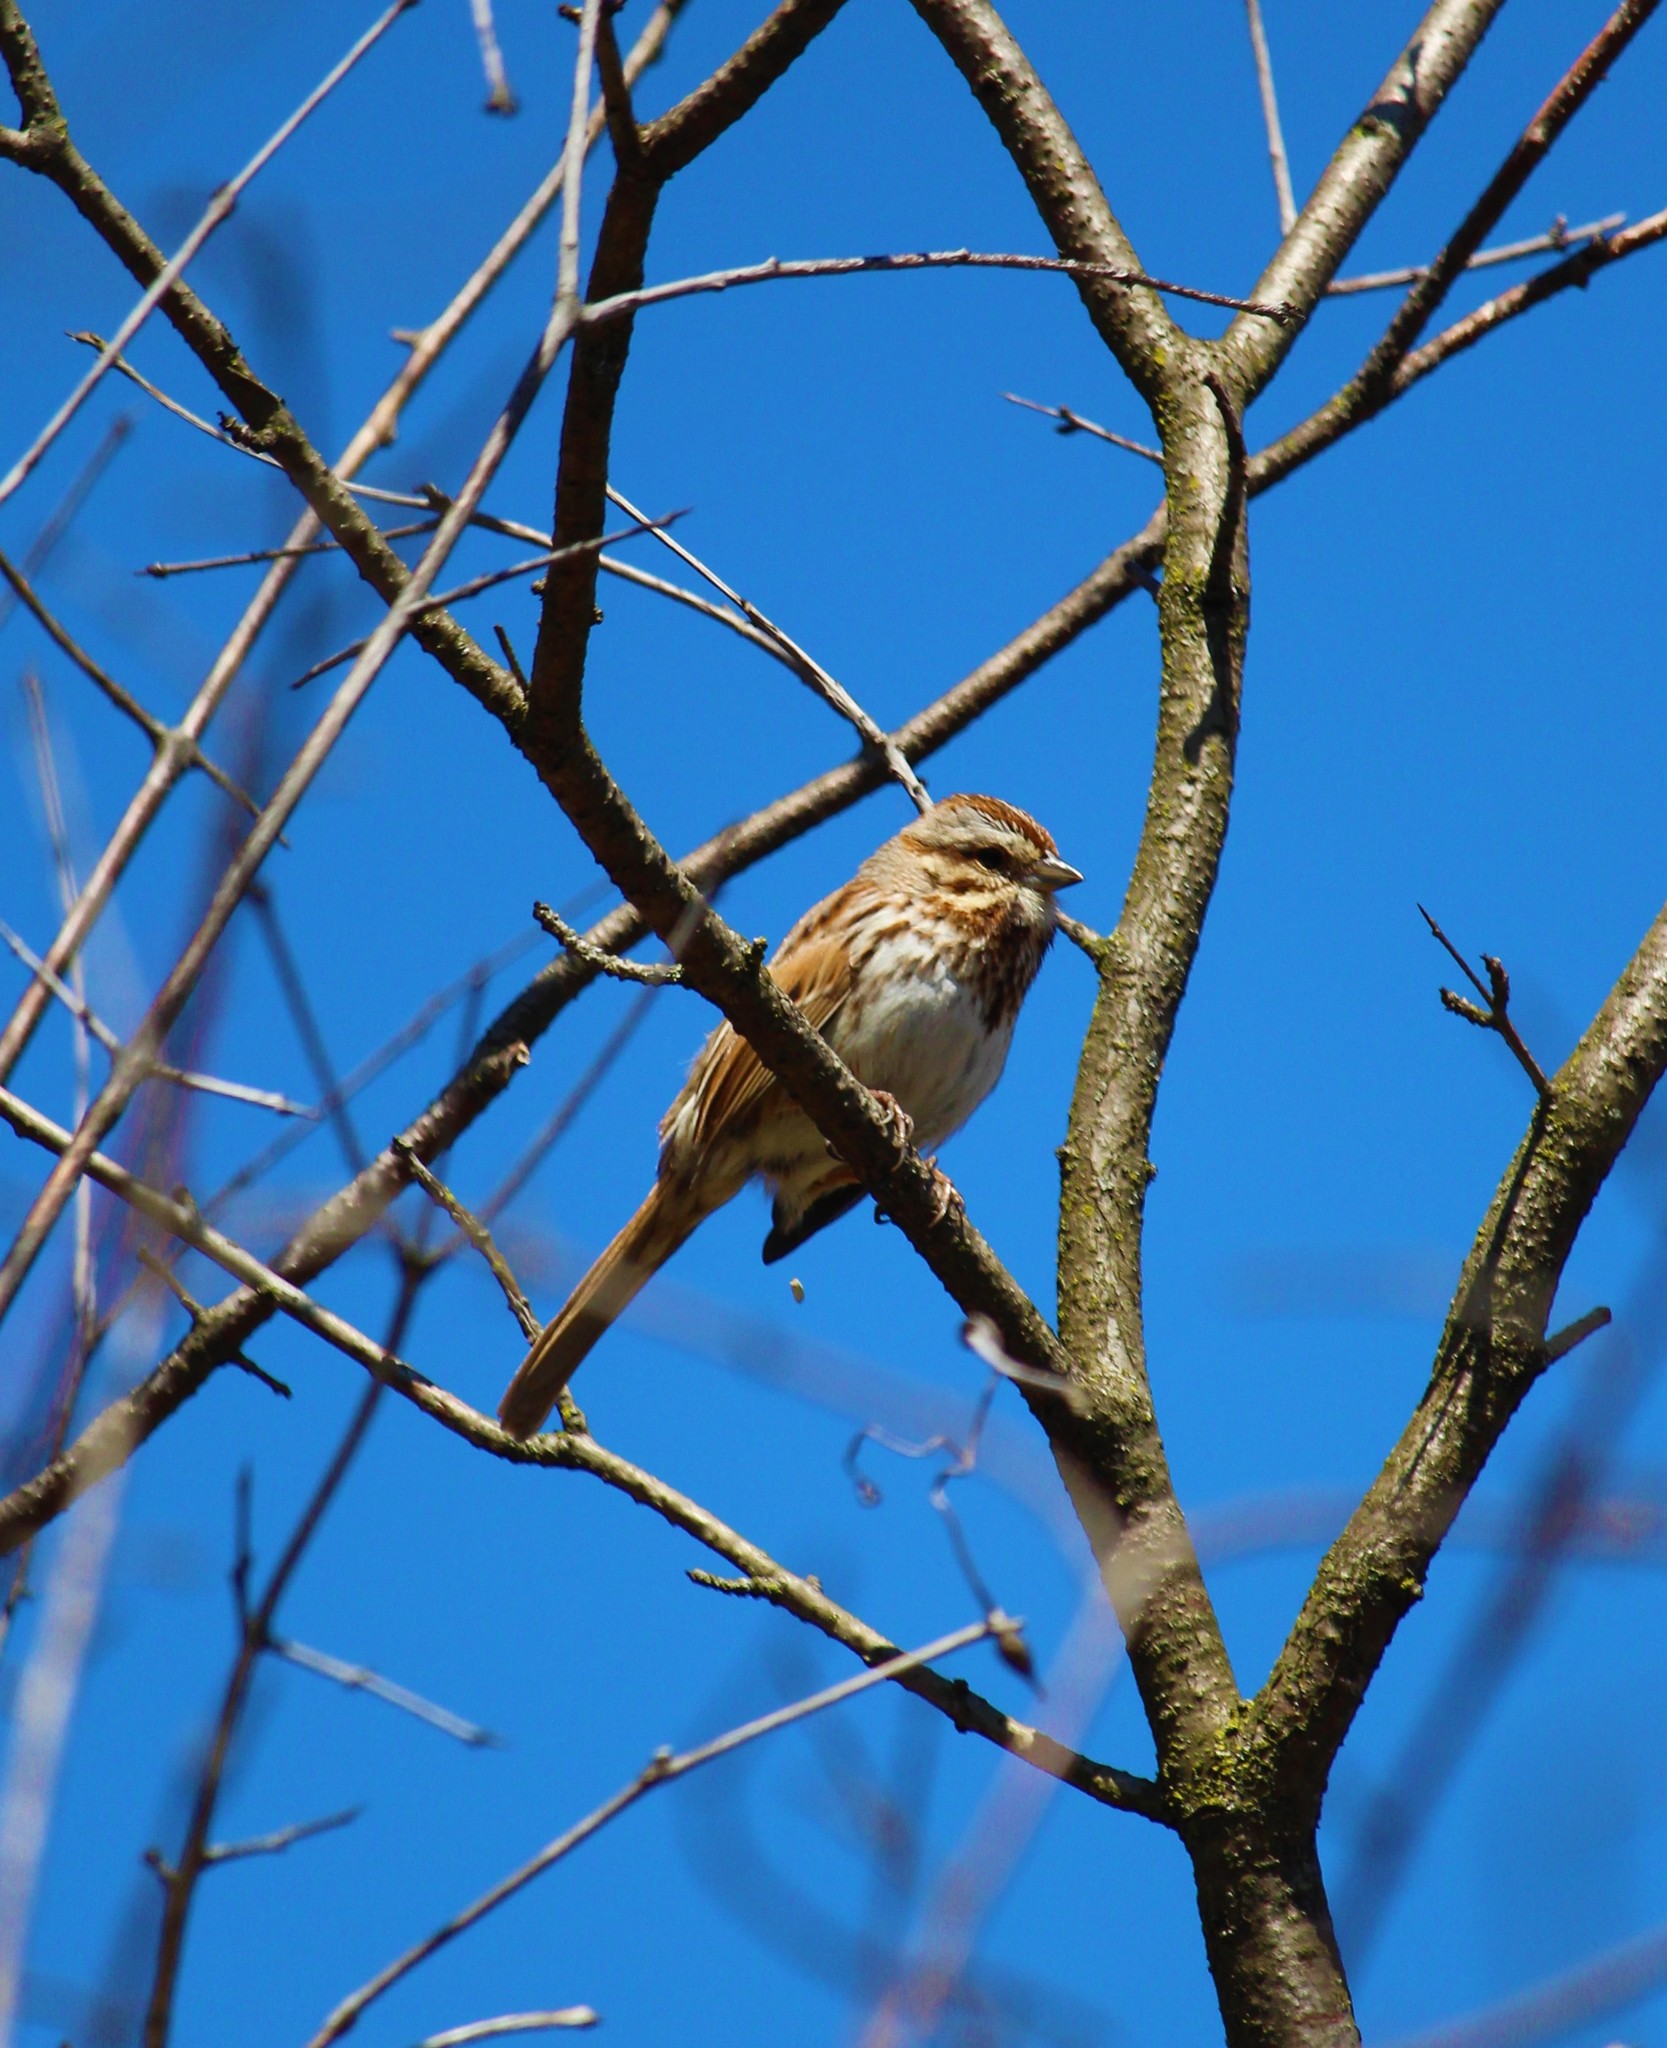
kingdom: Animalia
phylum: Chordata
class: Aves
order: Passeriformes
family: Passerellidae
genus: Melospiza
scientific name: Melospiza melodia
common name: Song sparrow
